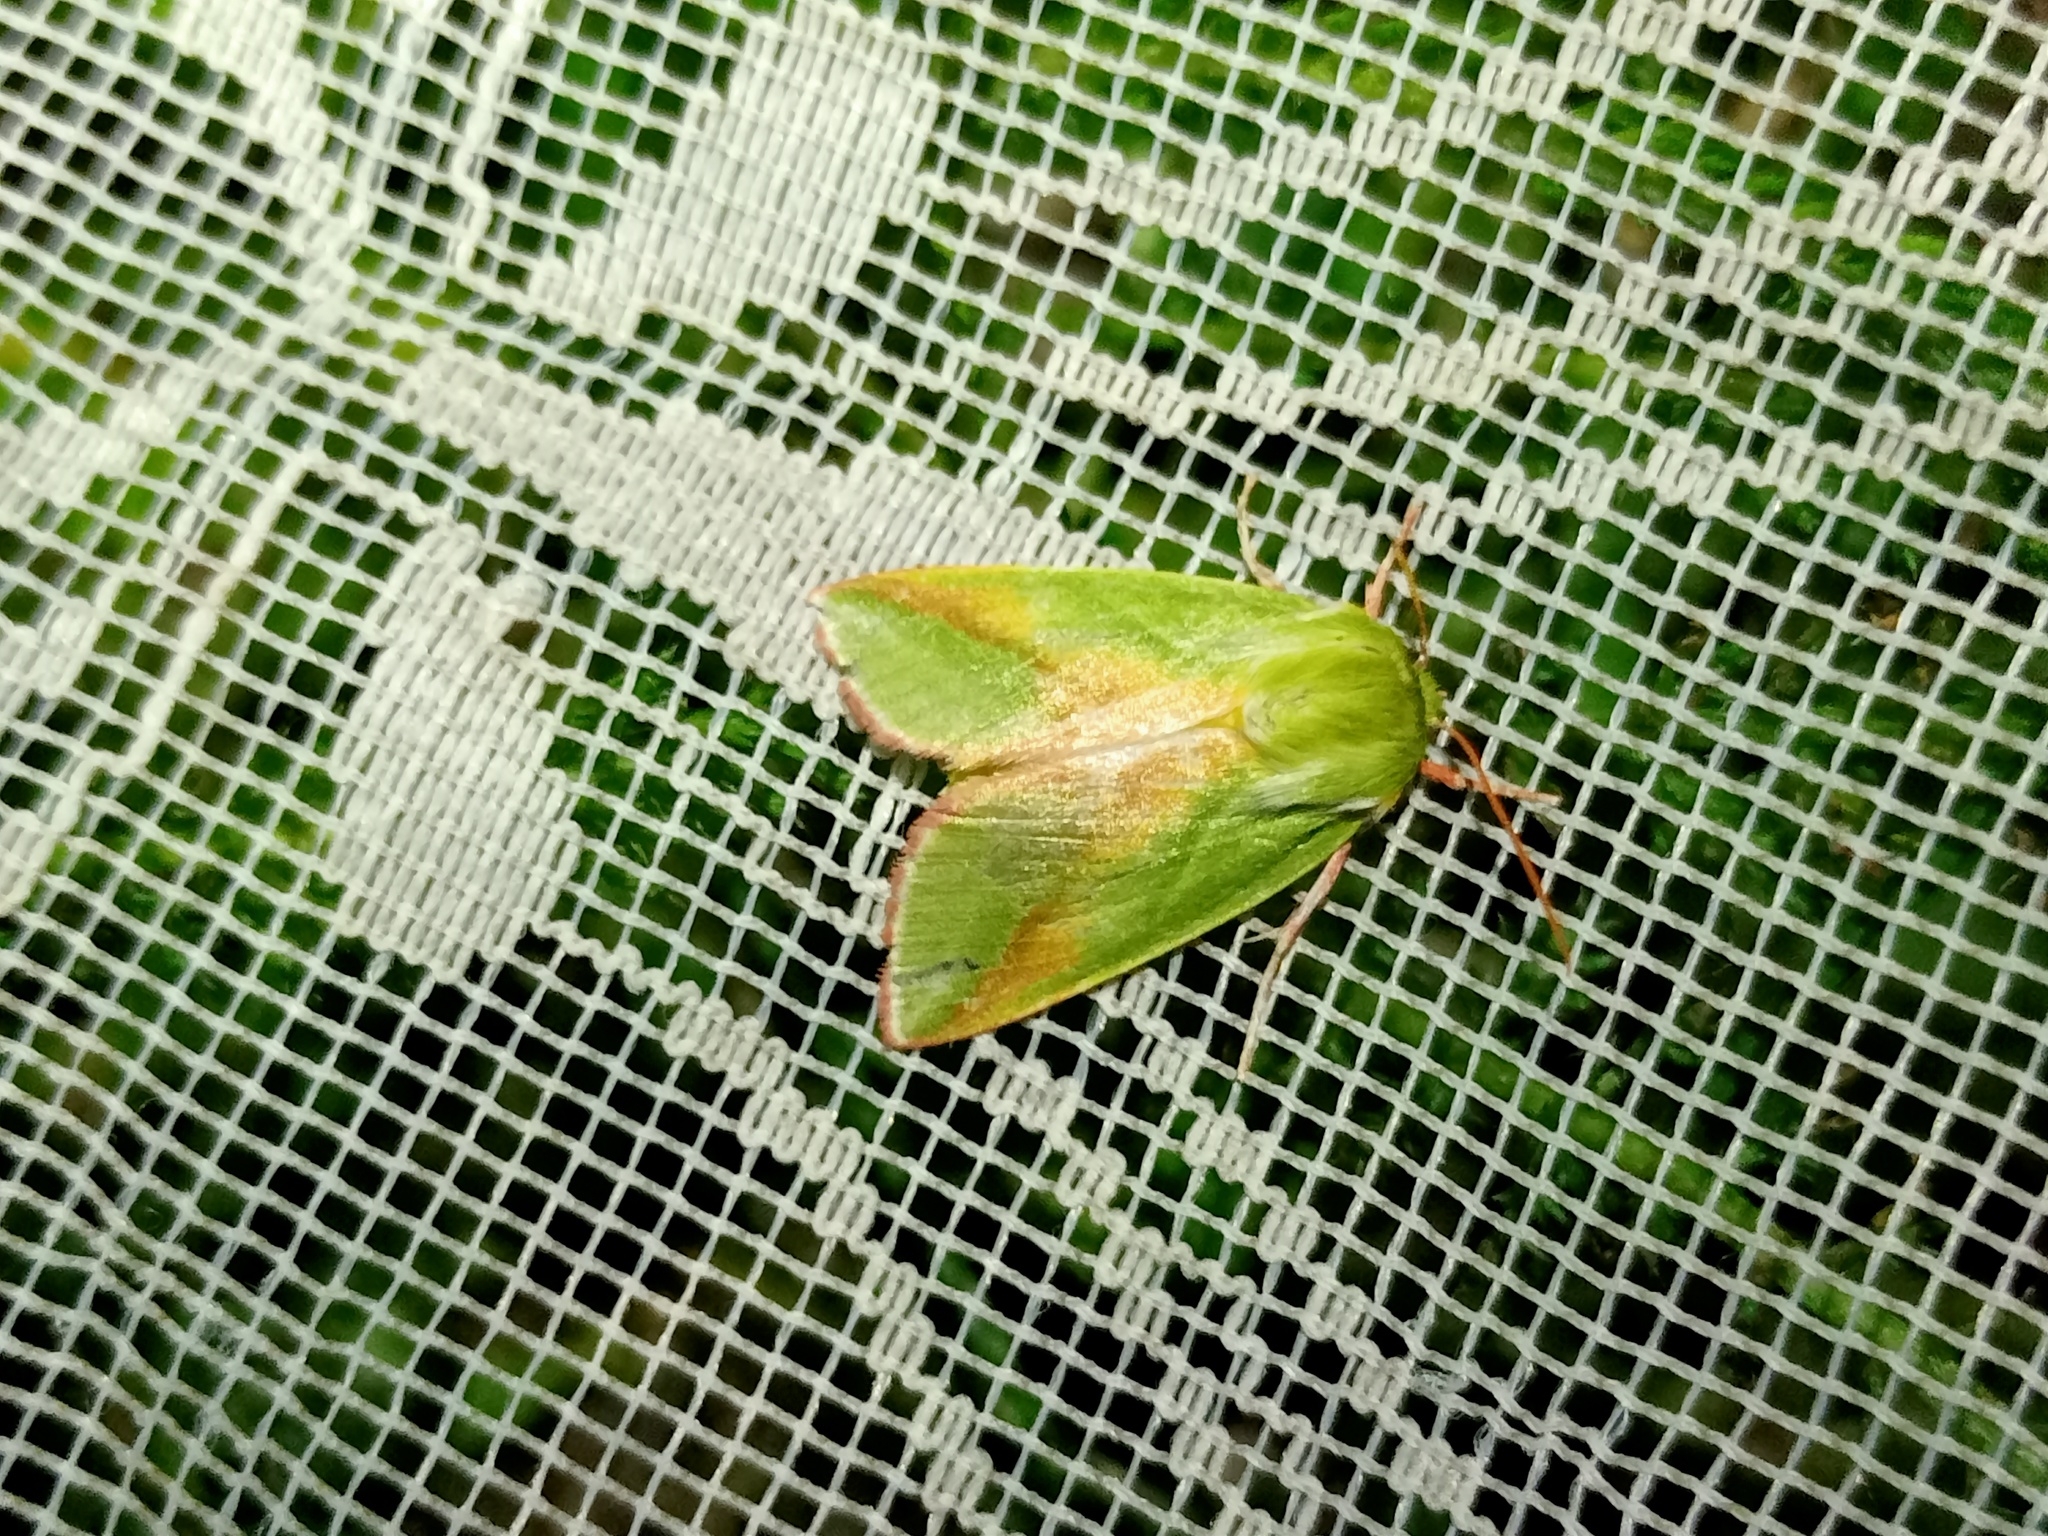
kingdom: Animalia
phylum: Arthropoda
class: Insecta
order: Lepidoptera
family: Nolidae
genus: Pseudoips
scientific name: Pseudoips prasinana
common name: Green silver-lines
